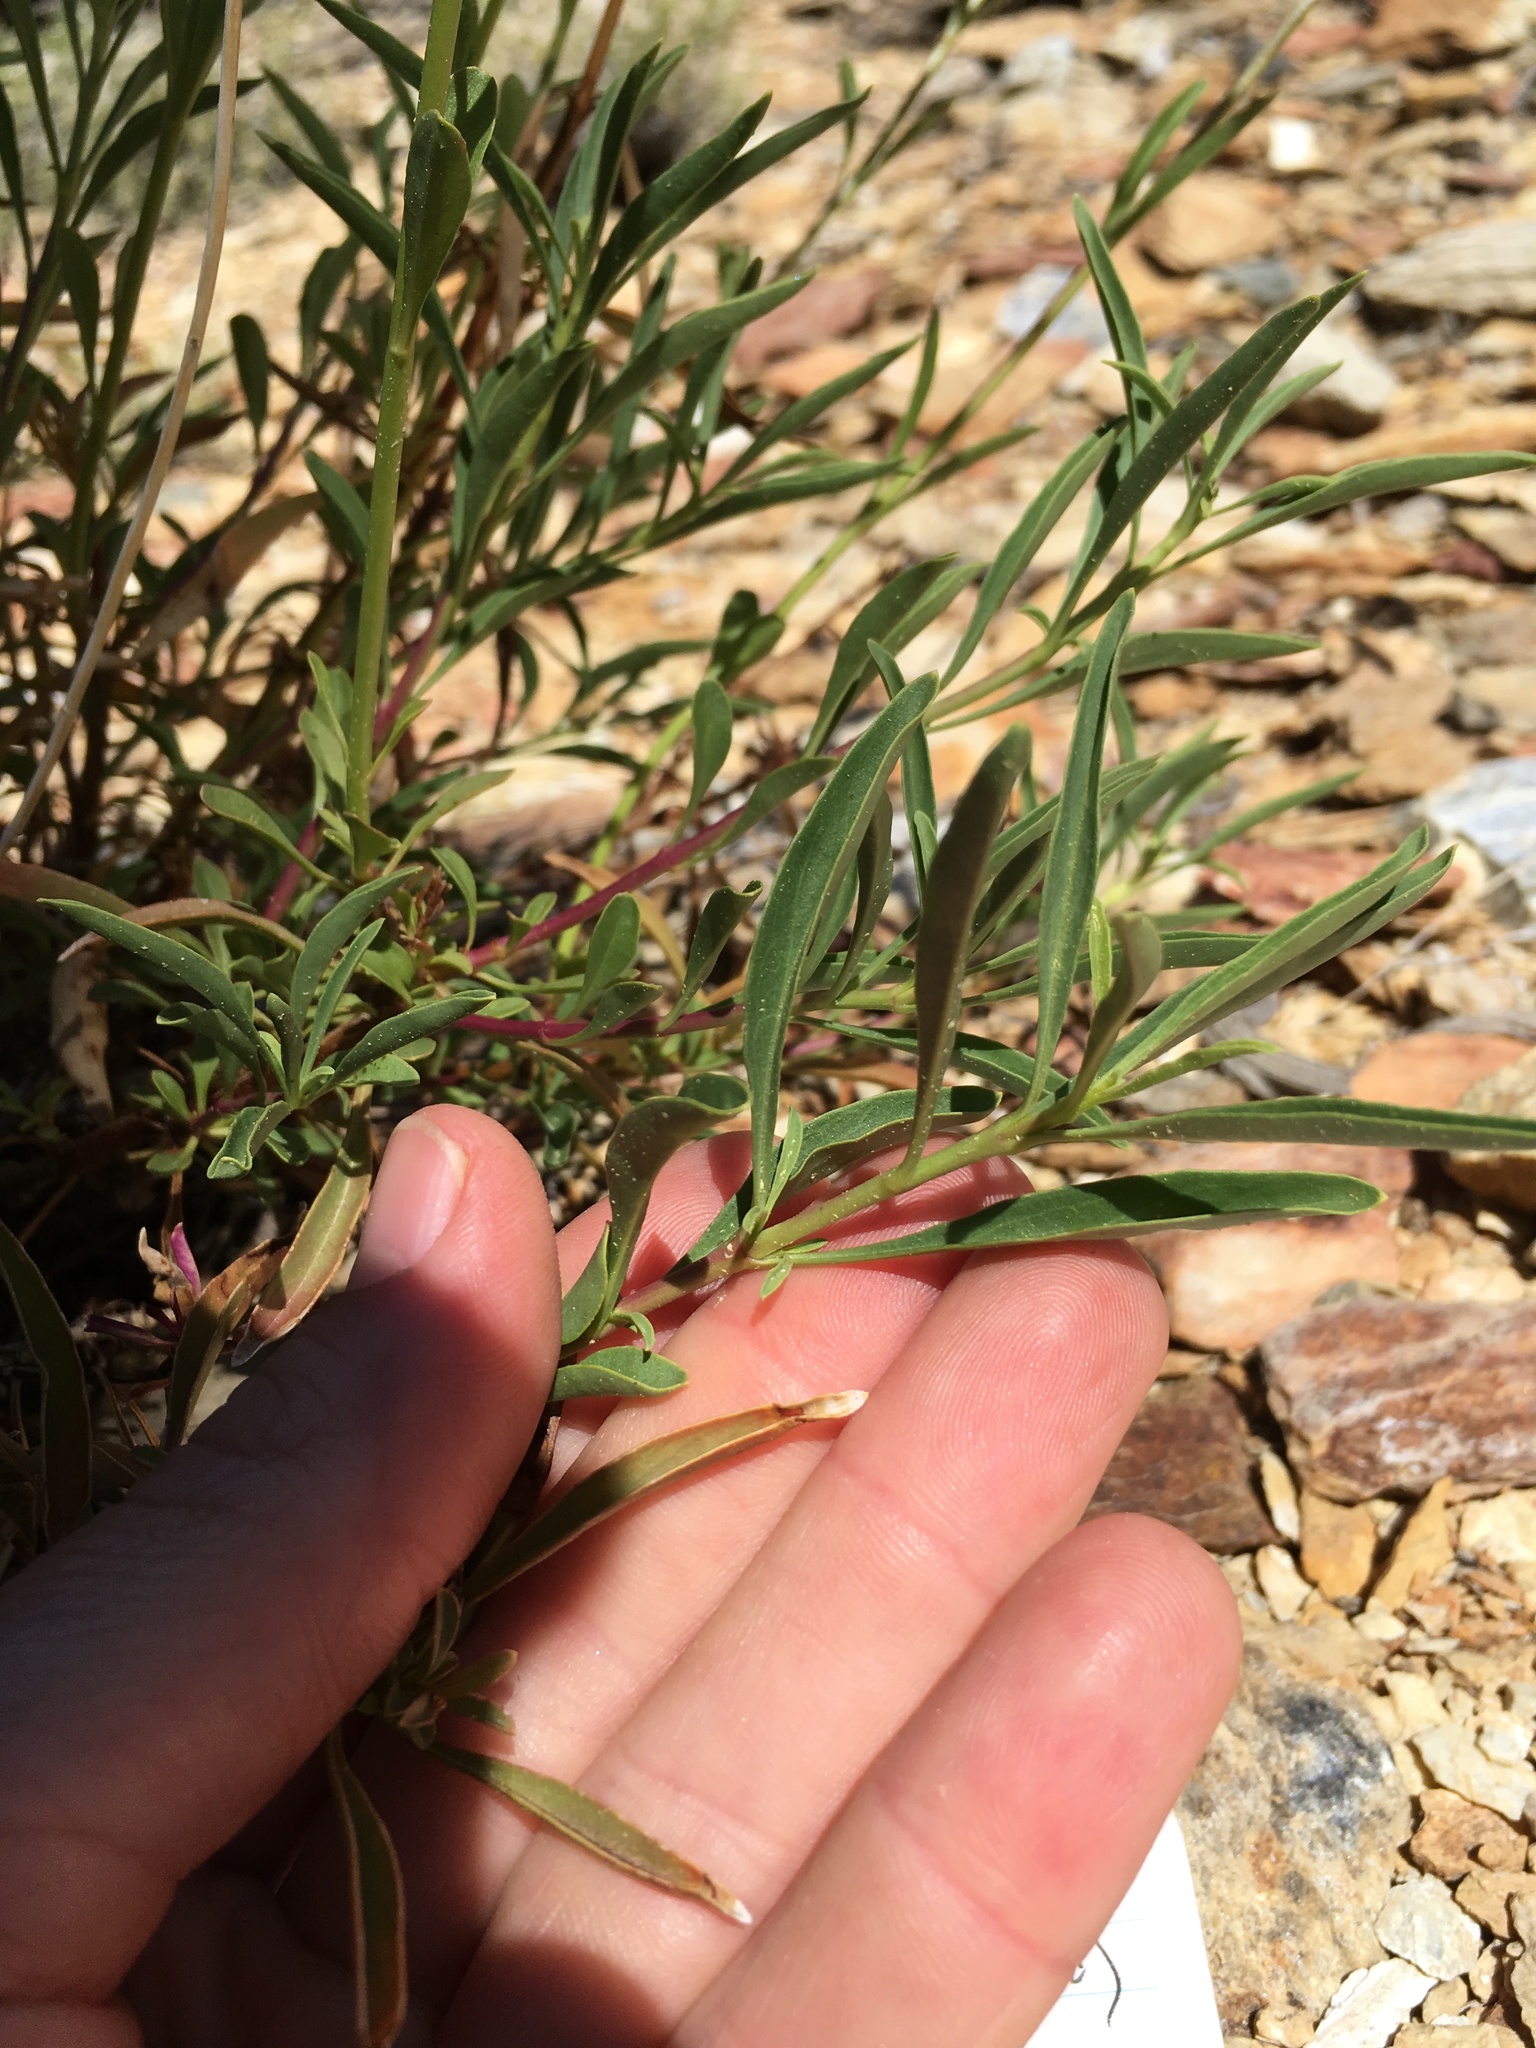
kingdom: Plantae
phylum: Tracheophyta
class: Magnoliopsida
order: Lamiales
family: Plantaginaceae
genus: Penstemon
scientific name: Penstemon rostriflorus
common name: Bridges's penstemon
